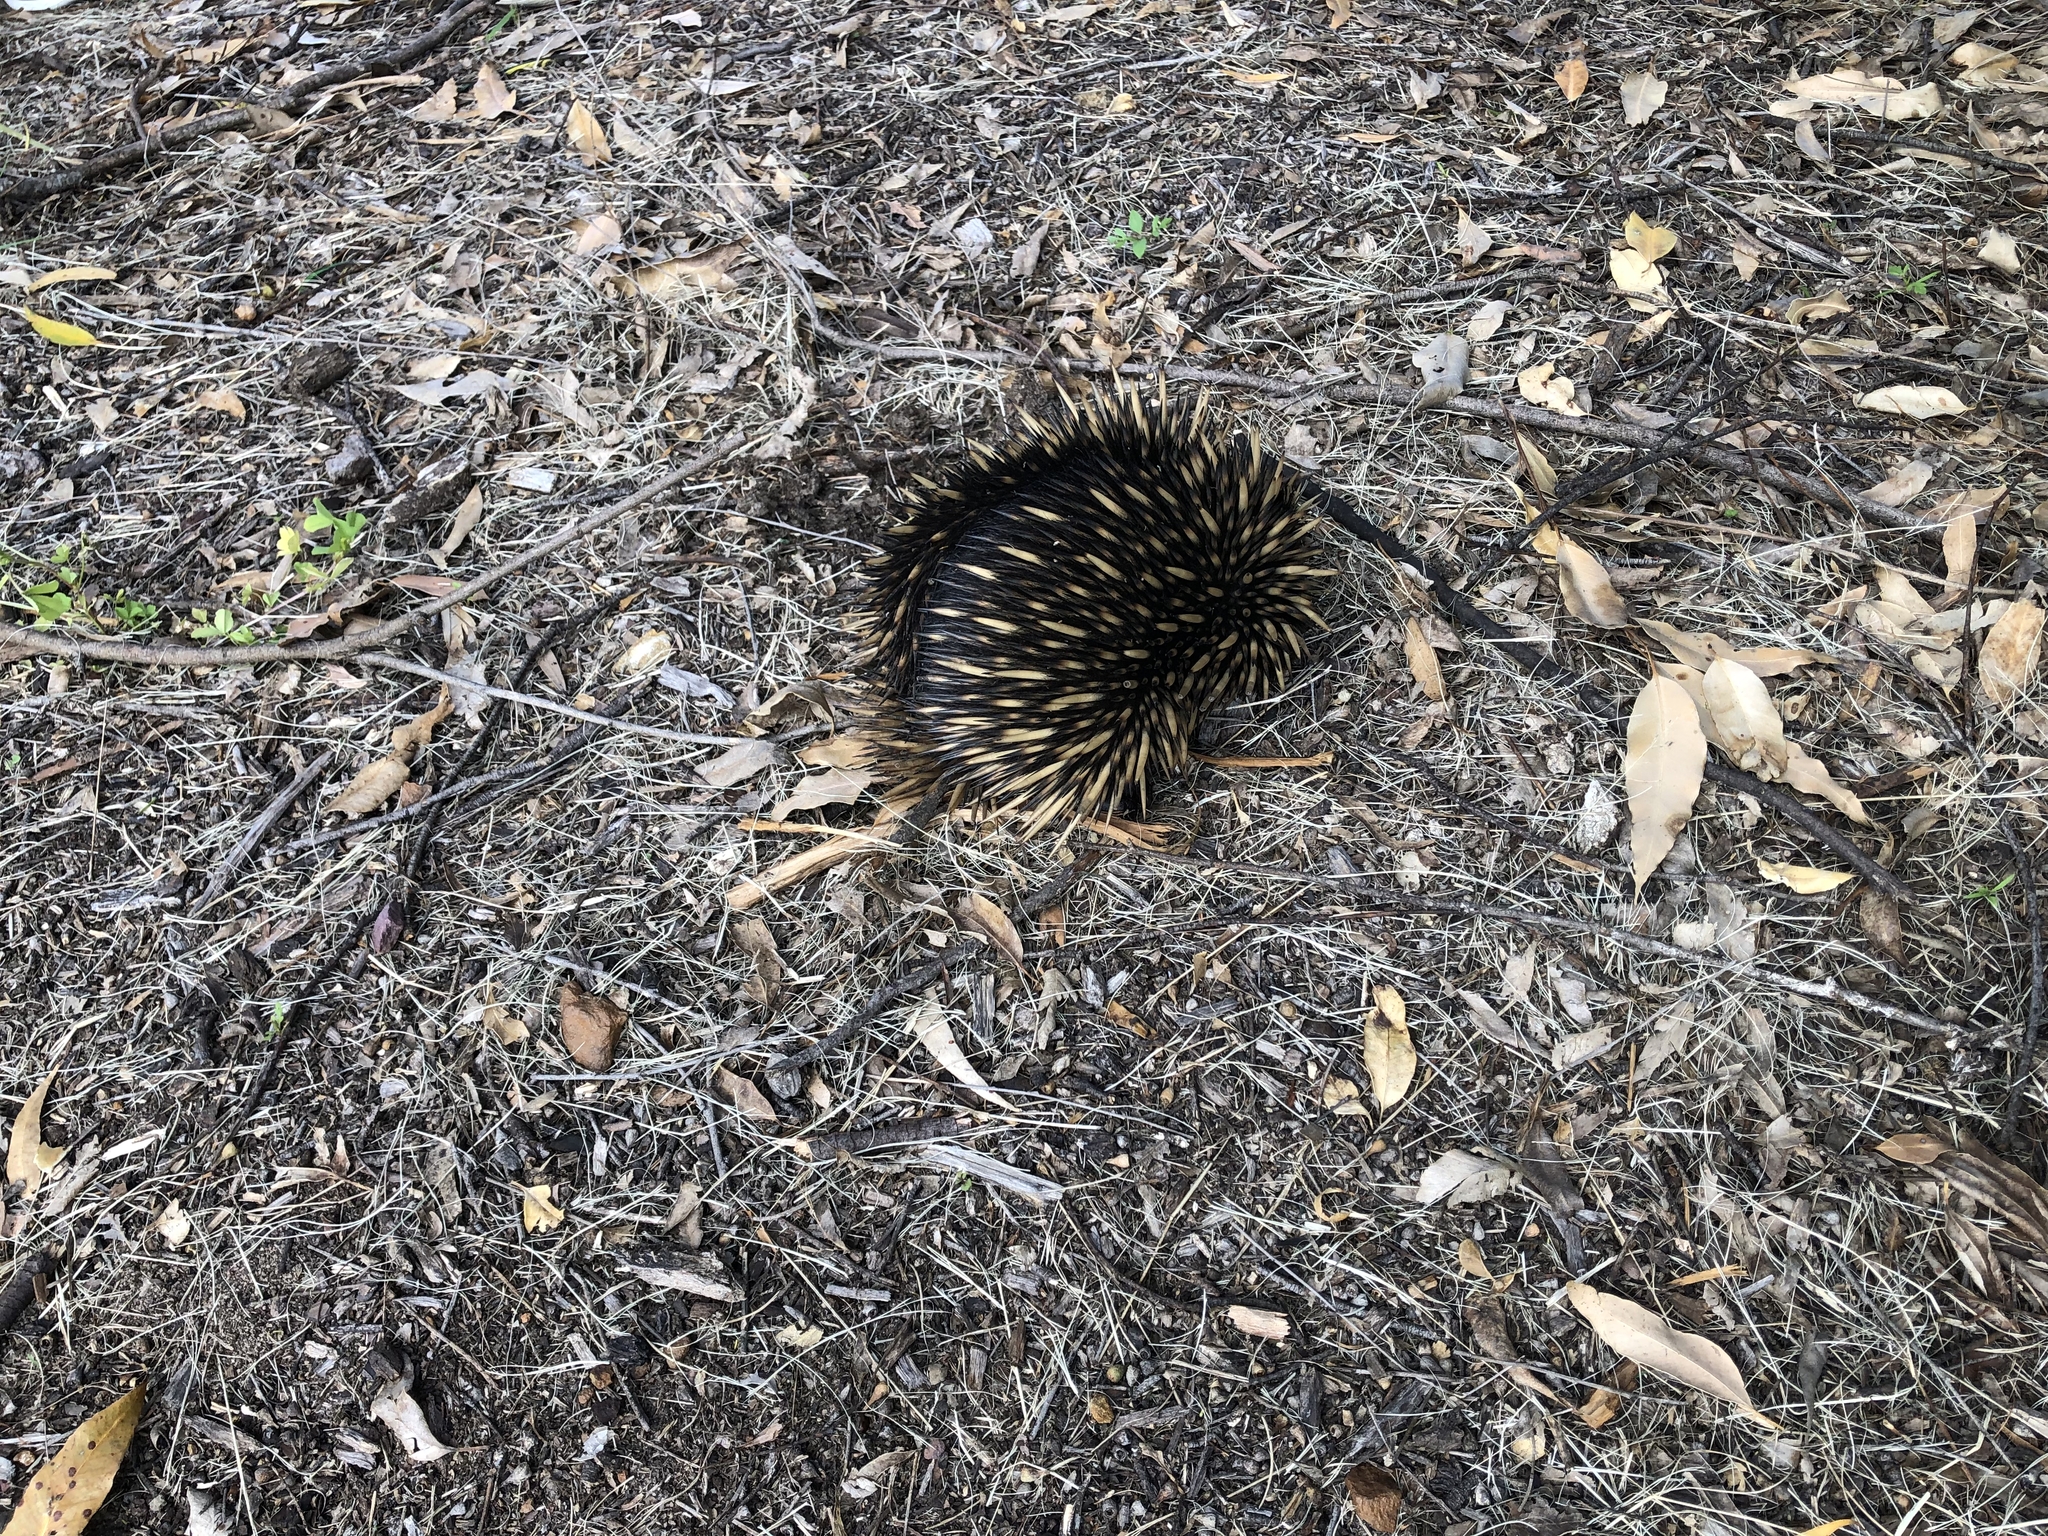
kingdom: Animalia
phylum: Chordata
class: Mammalia
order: Monotremata
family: Tachyglossidae
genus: Tachyglossus
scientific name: Tachyglossus aculeatus
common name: Short-beaked echidna
